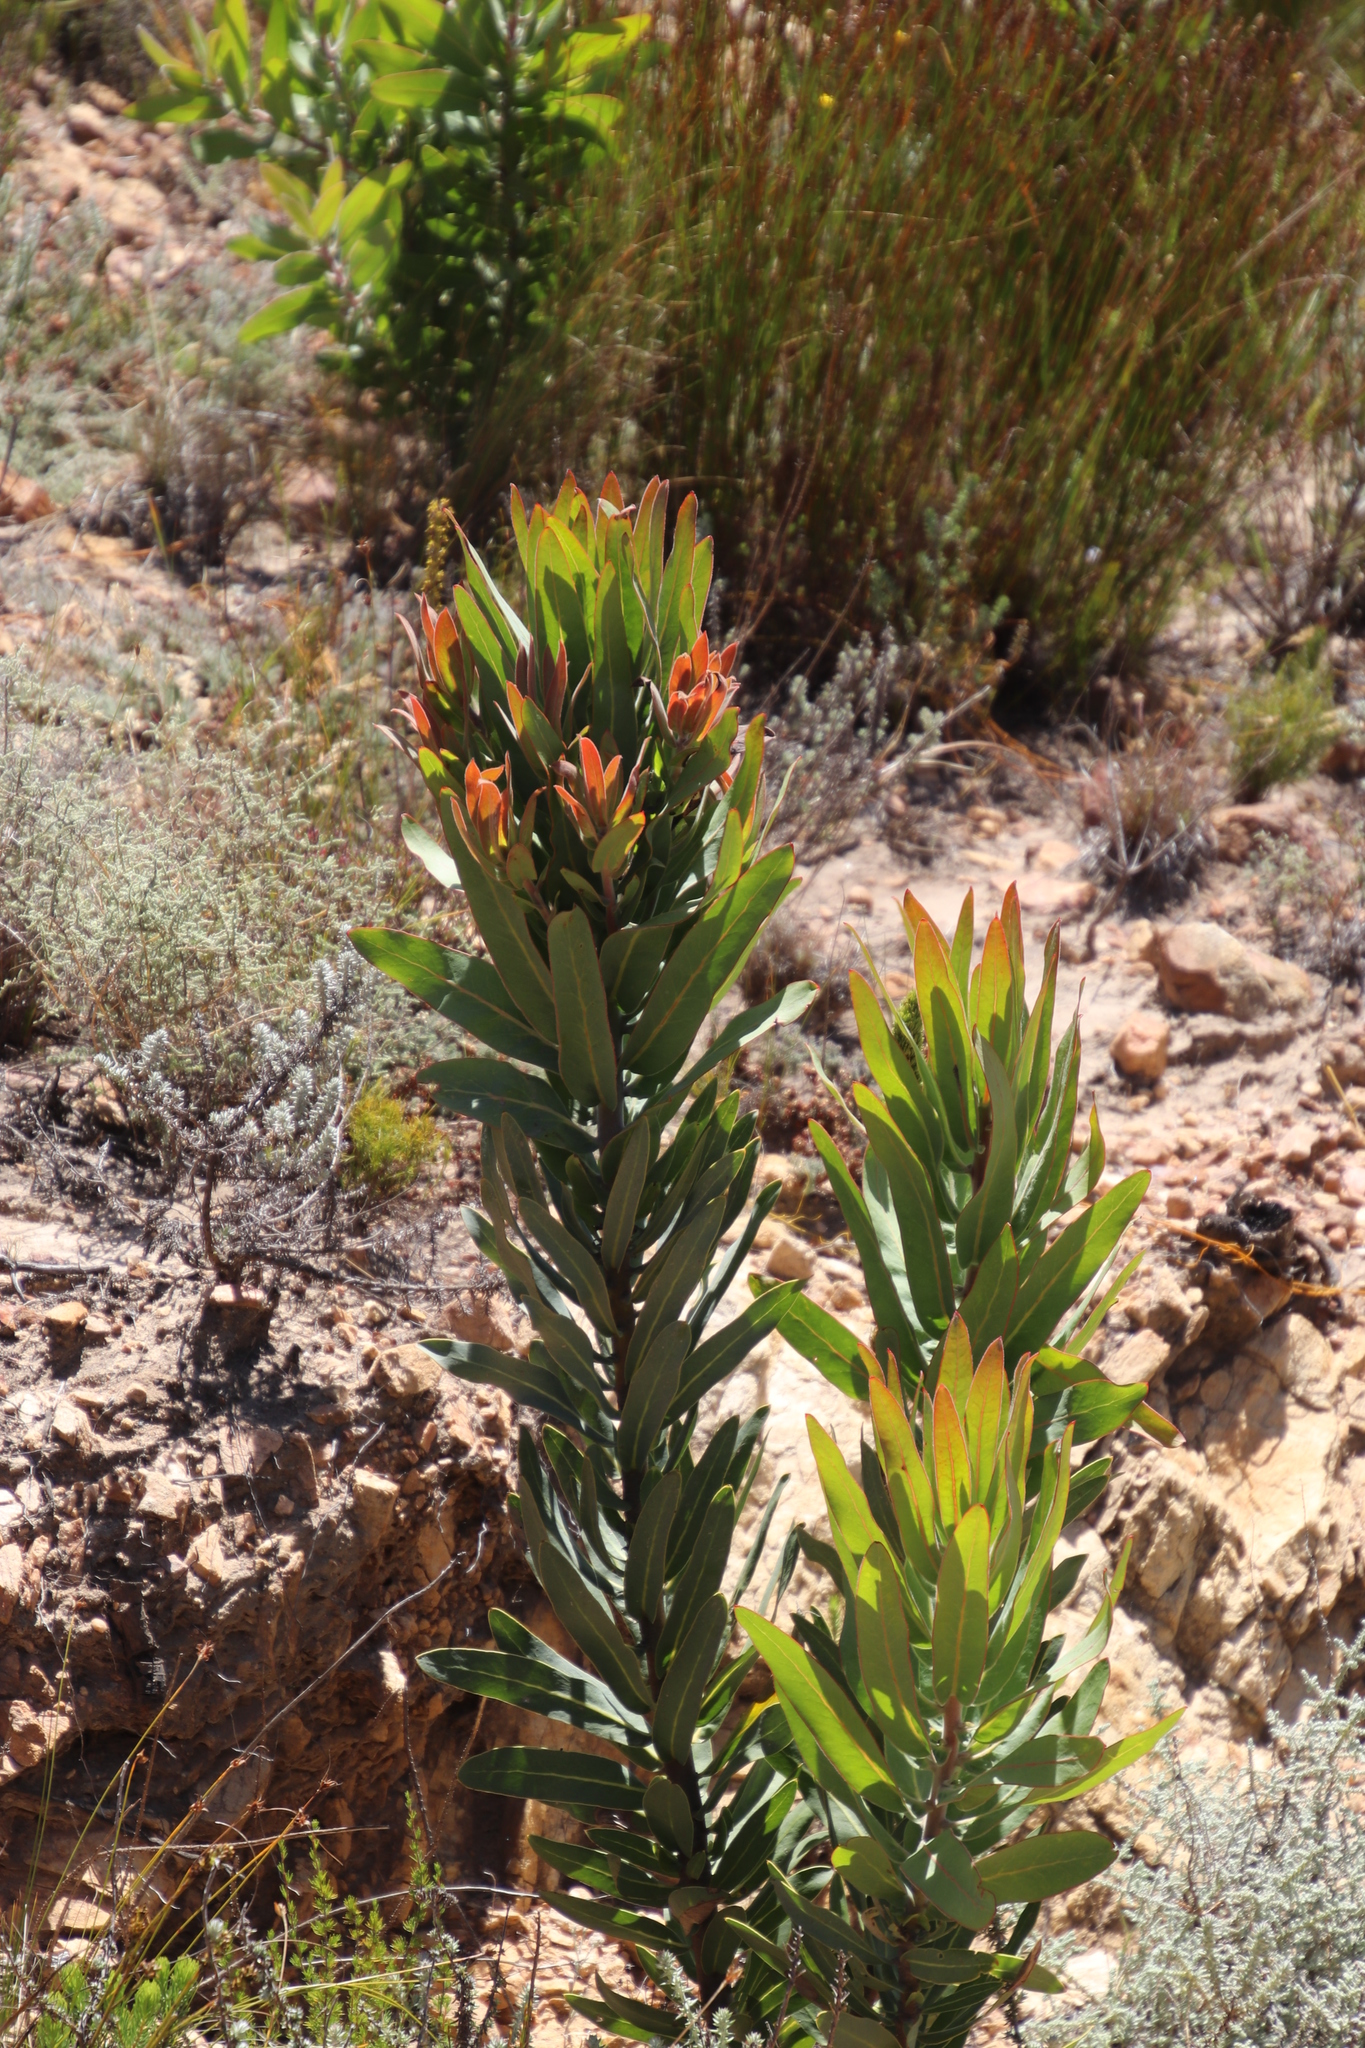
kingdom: Plantae
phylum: Tracheophyta
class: Magnoliopsida
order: Proteales
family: Proteaceae
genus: Protea
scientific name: Protea laurifolia
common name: Grey-leaf sugarbsh
